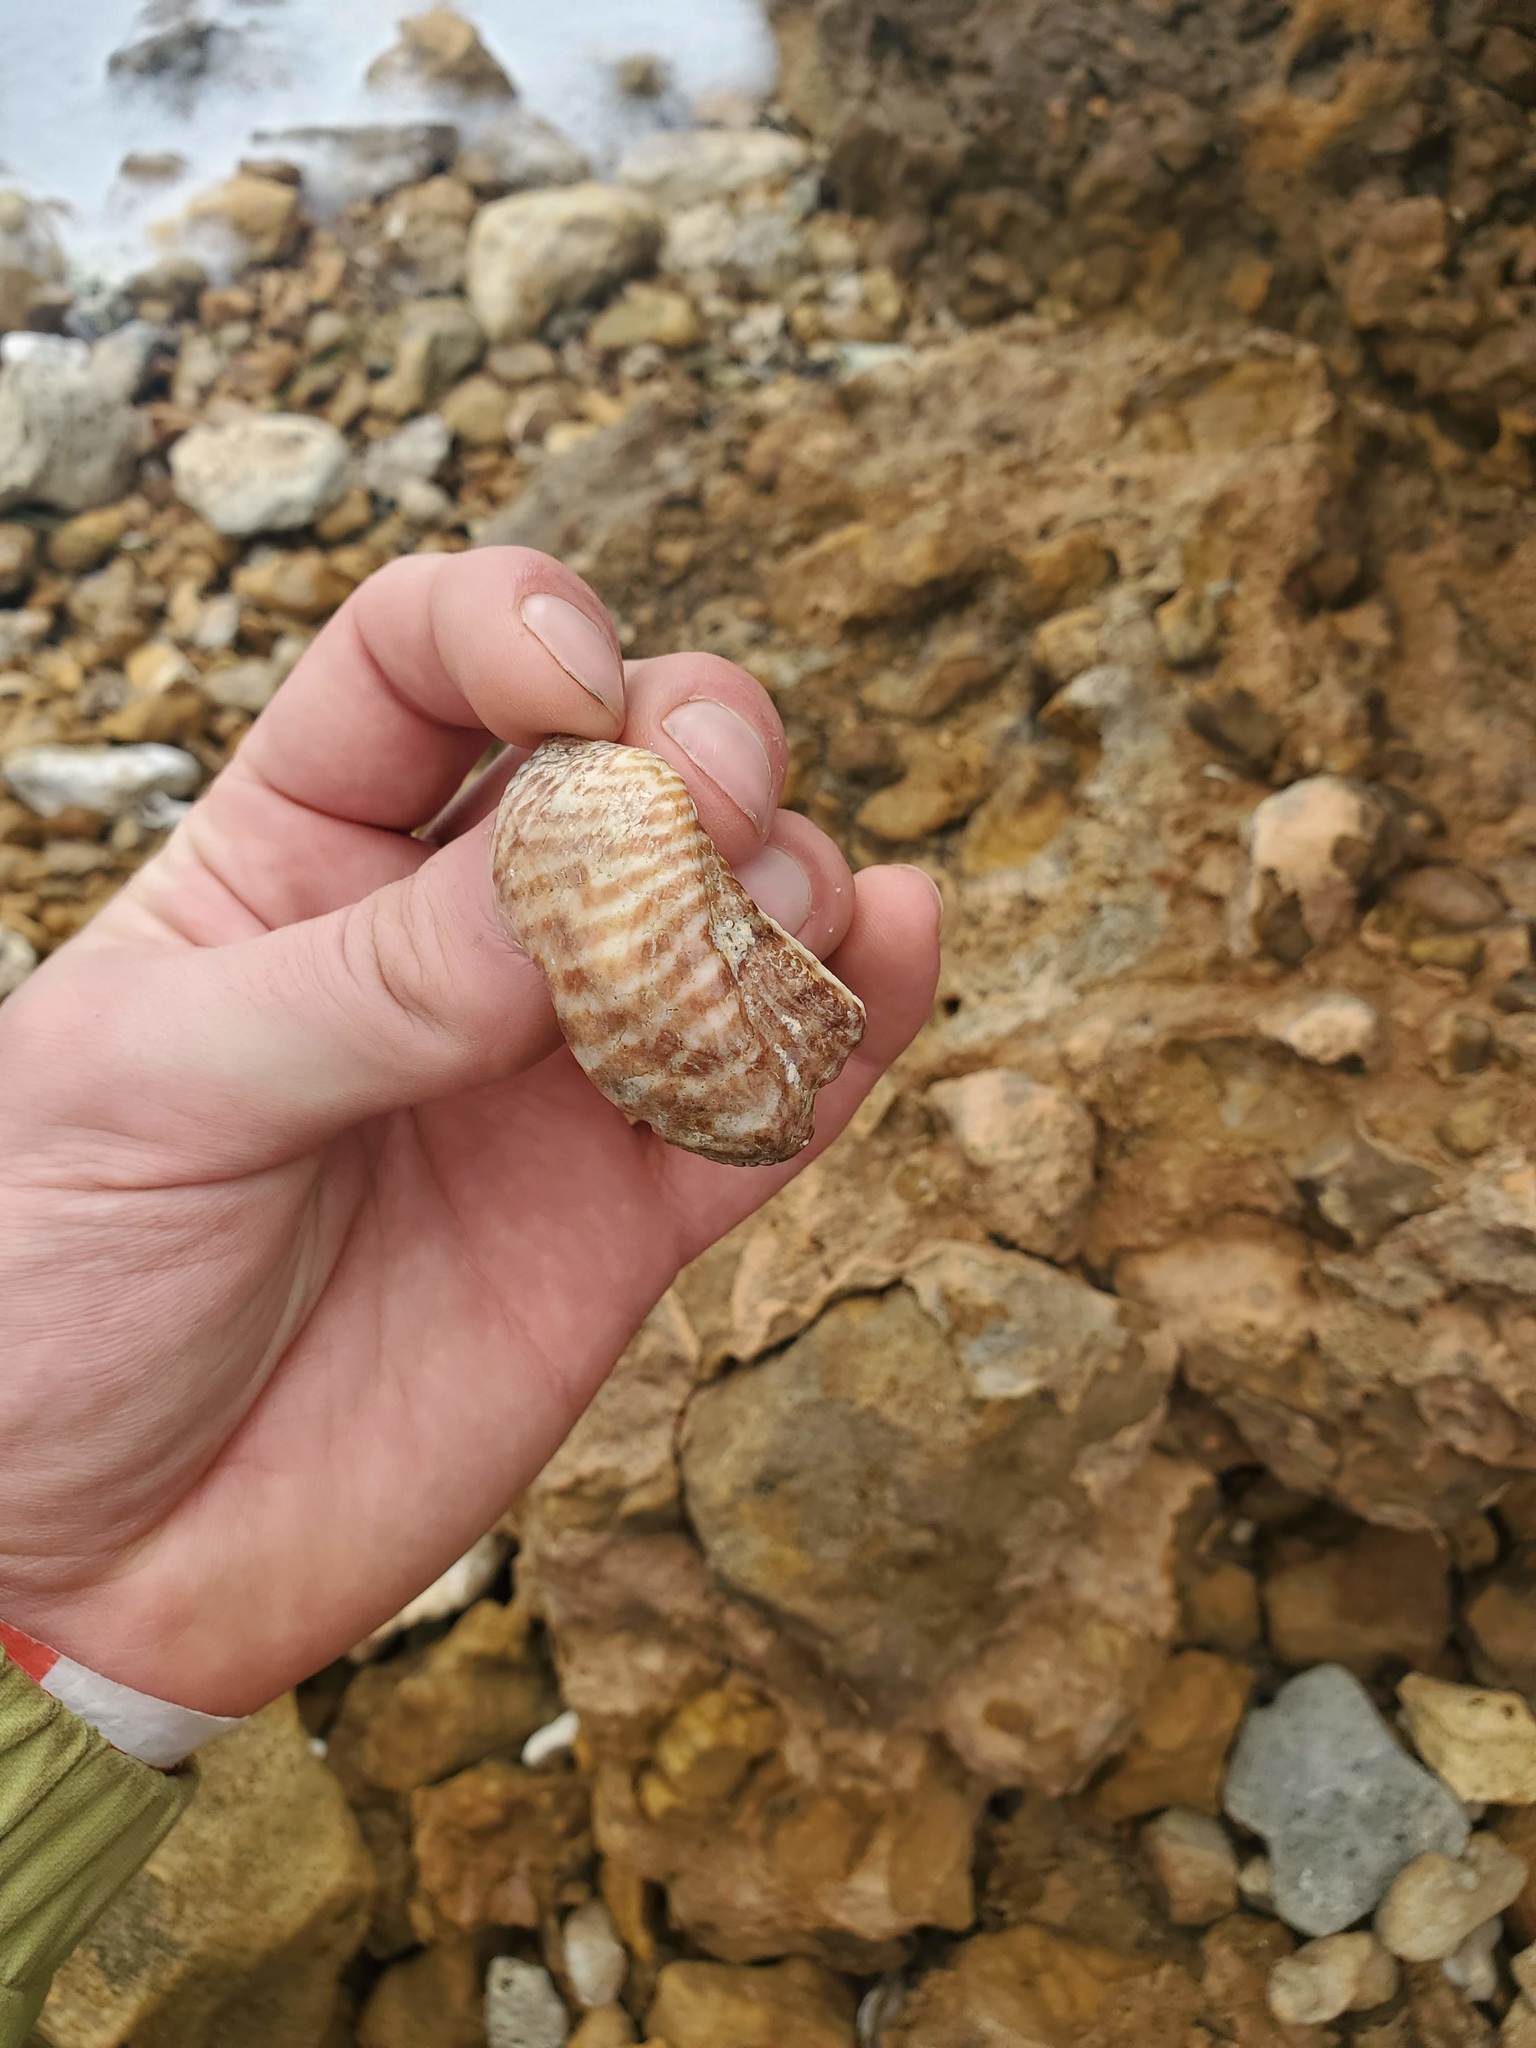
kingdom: Animalia
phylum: Mollusca
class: Bivalvia
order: Arcida
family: Arcidae
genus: Arca
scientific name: Arca zebra
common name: Atlantic turkey wing
